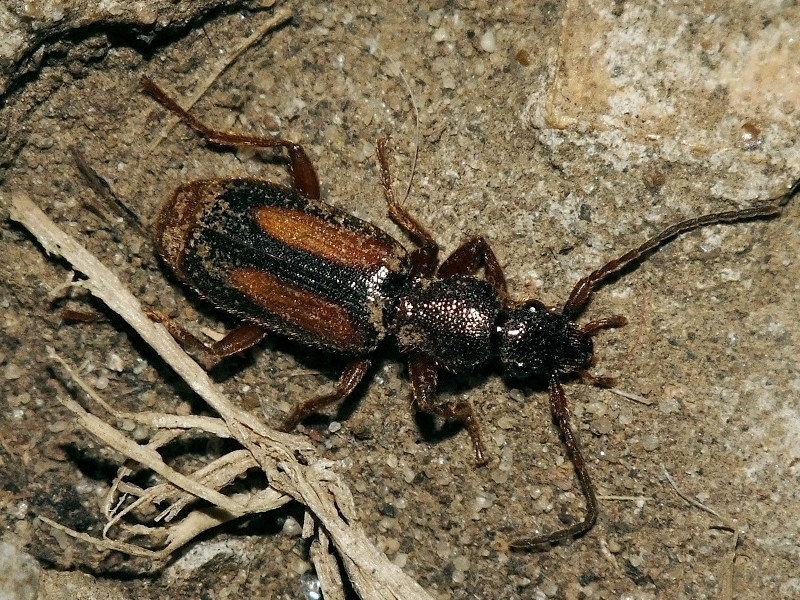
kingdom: Animalia
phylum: Arthropoda
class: Insecta
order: Coleoptera
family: Carabidae
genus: Polistichus
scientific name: Polistichus connexus
